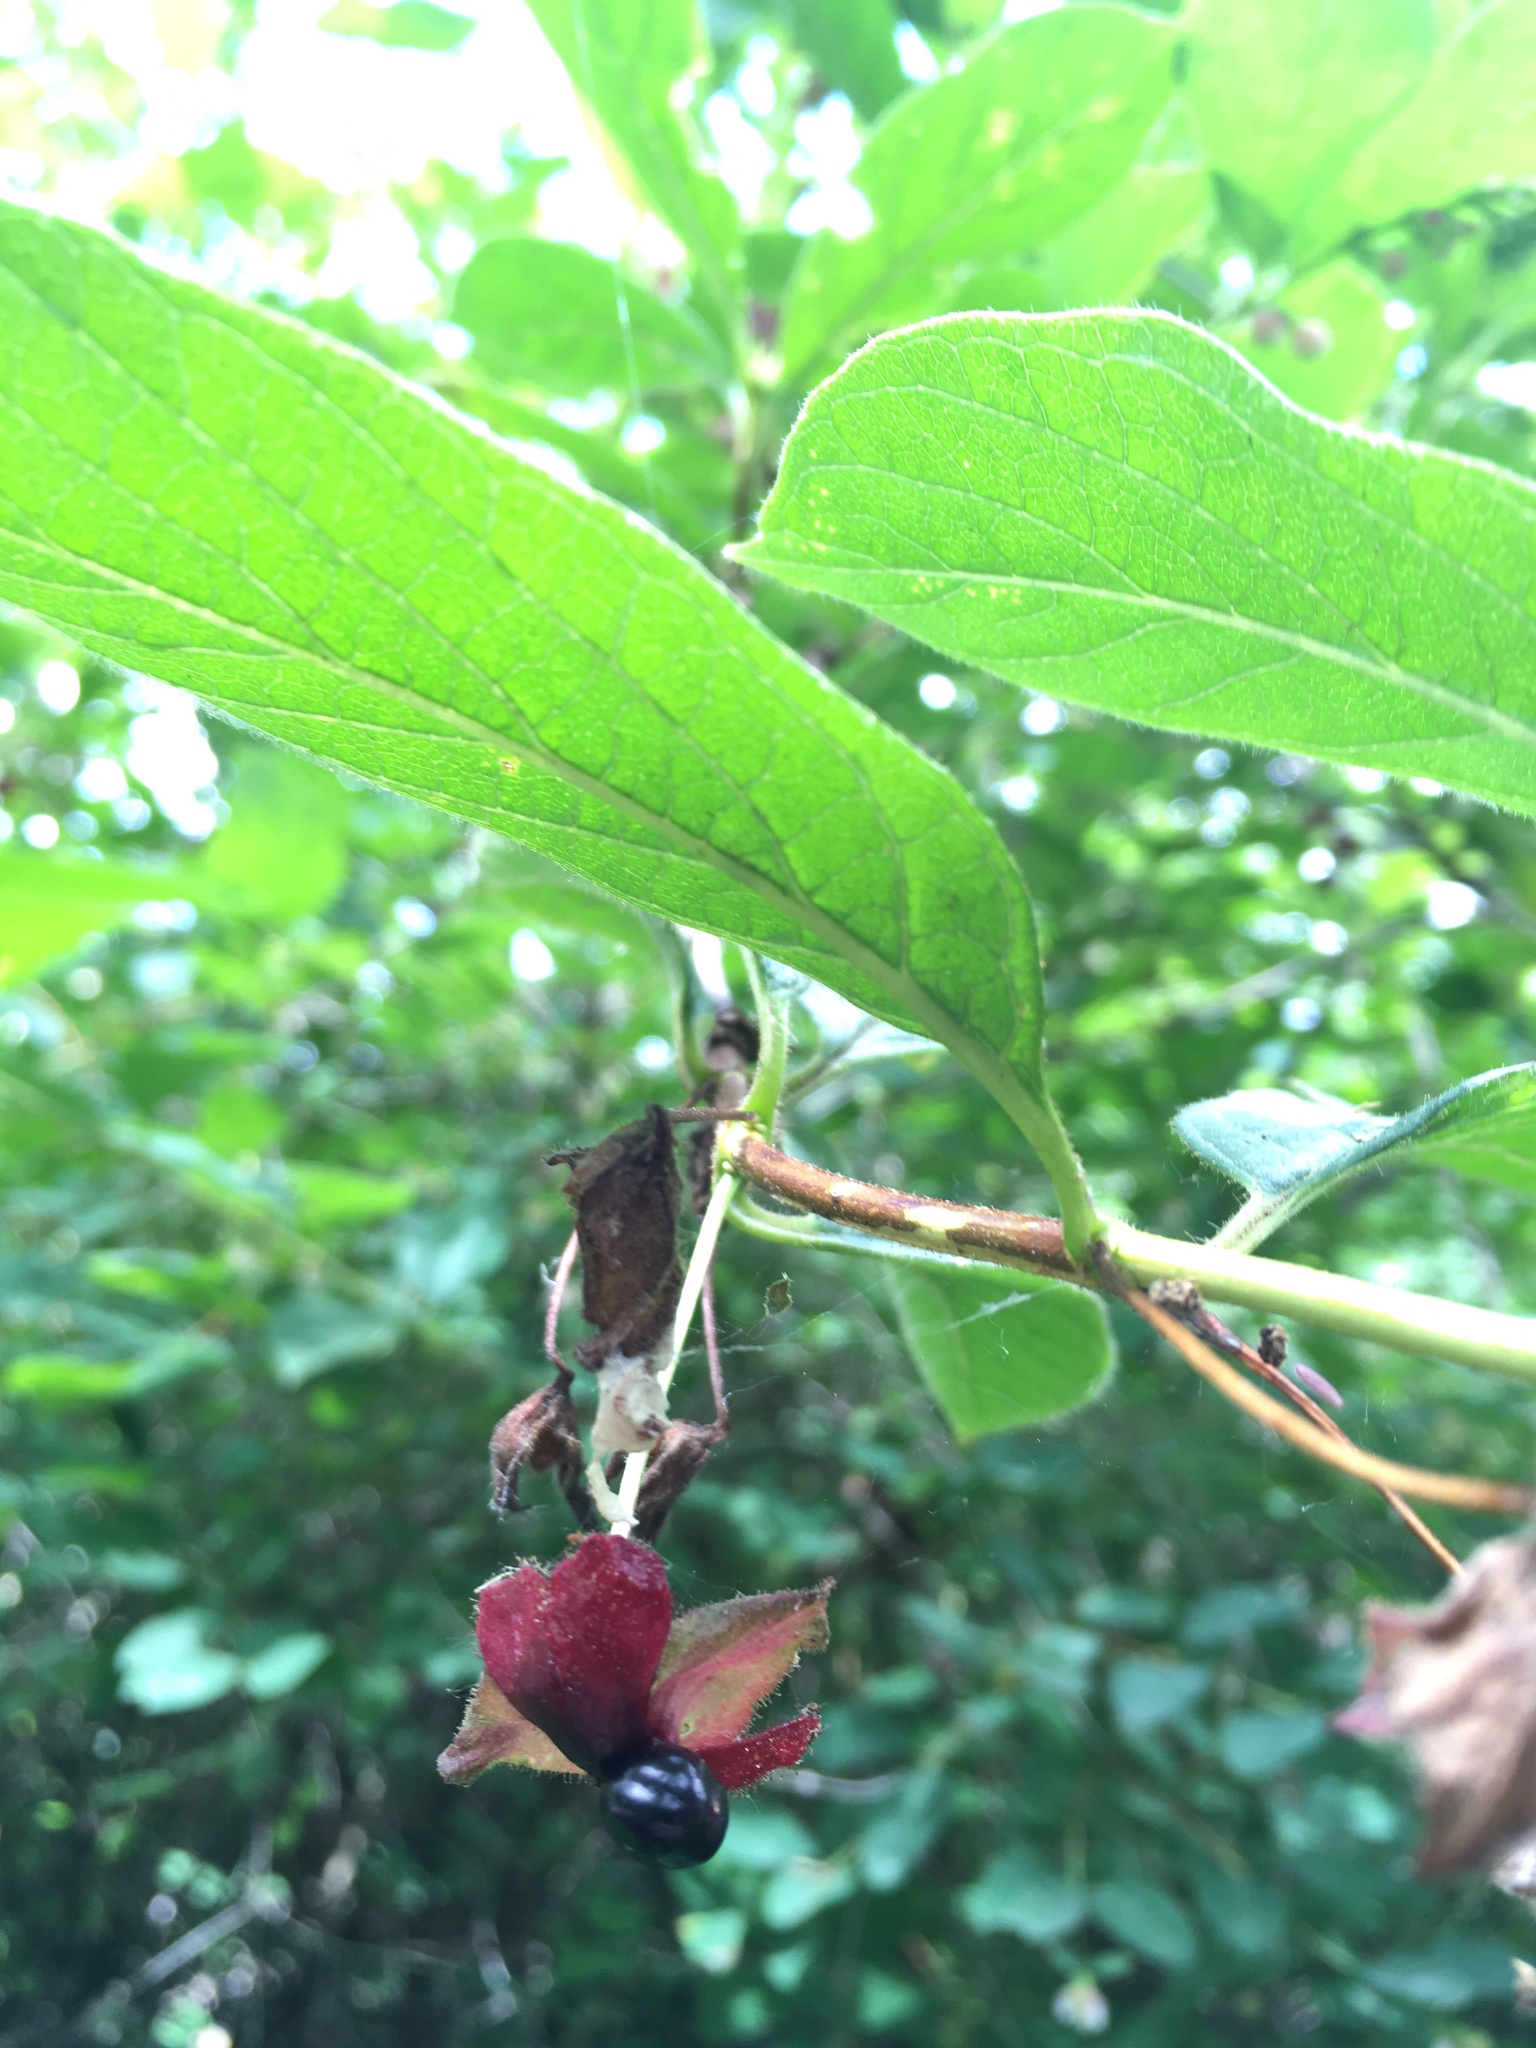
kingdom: Plantae
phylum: Tracheophyta
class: Magnoliopsida
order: Dipsacales
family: Caprifoliaceae
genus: Lonicera
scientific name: Lonicera involucrata
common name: Californian honeysuckle
